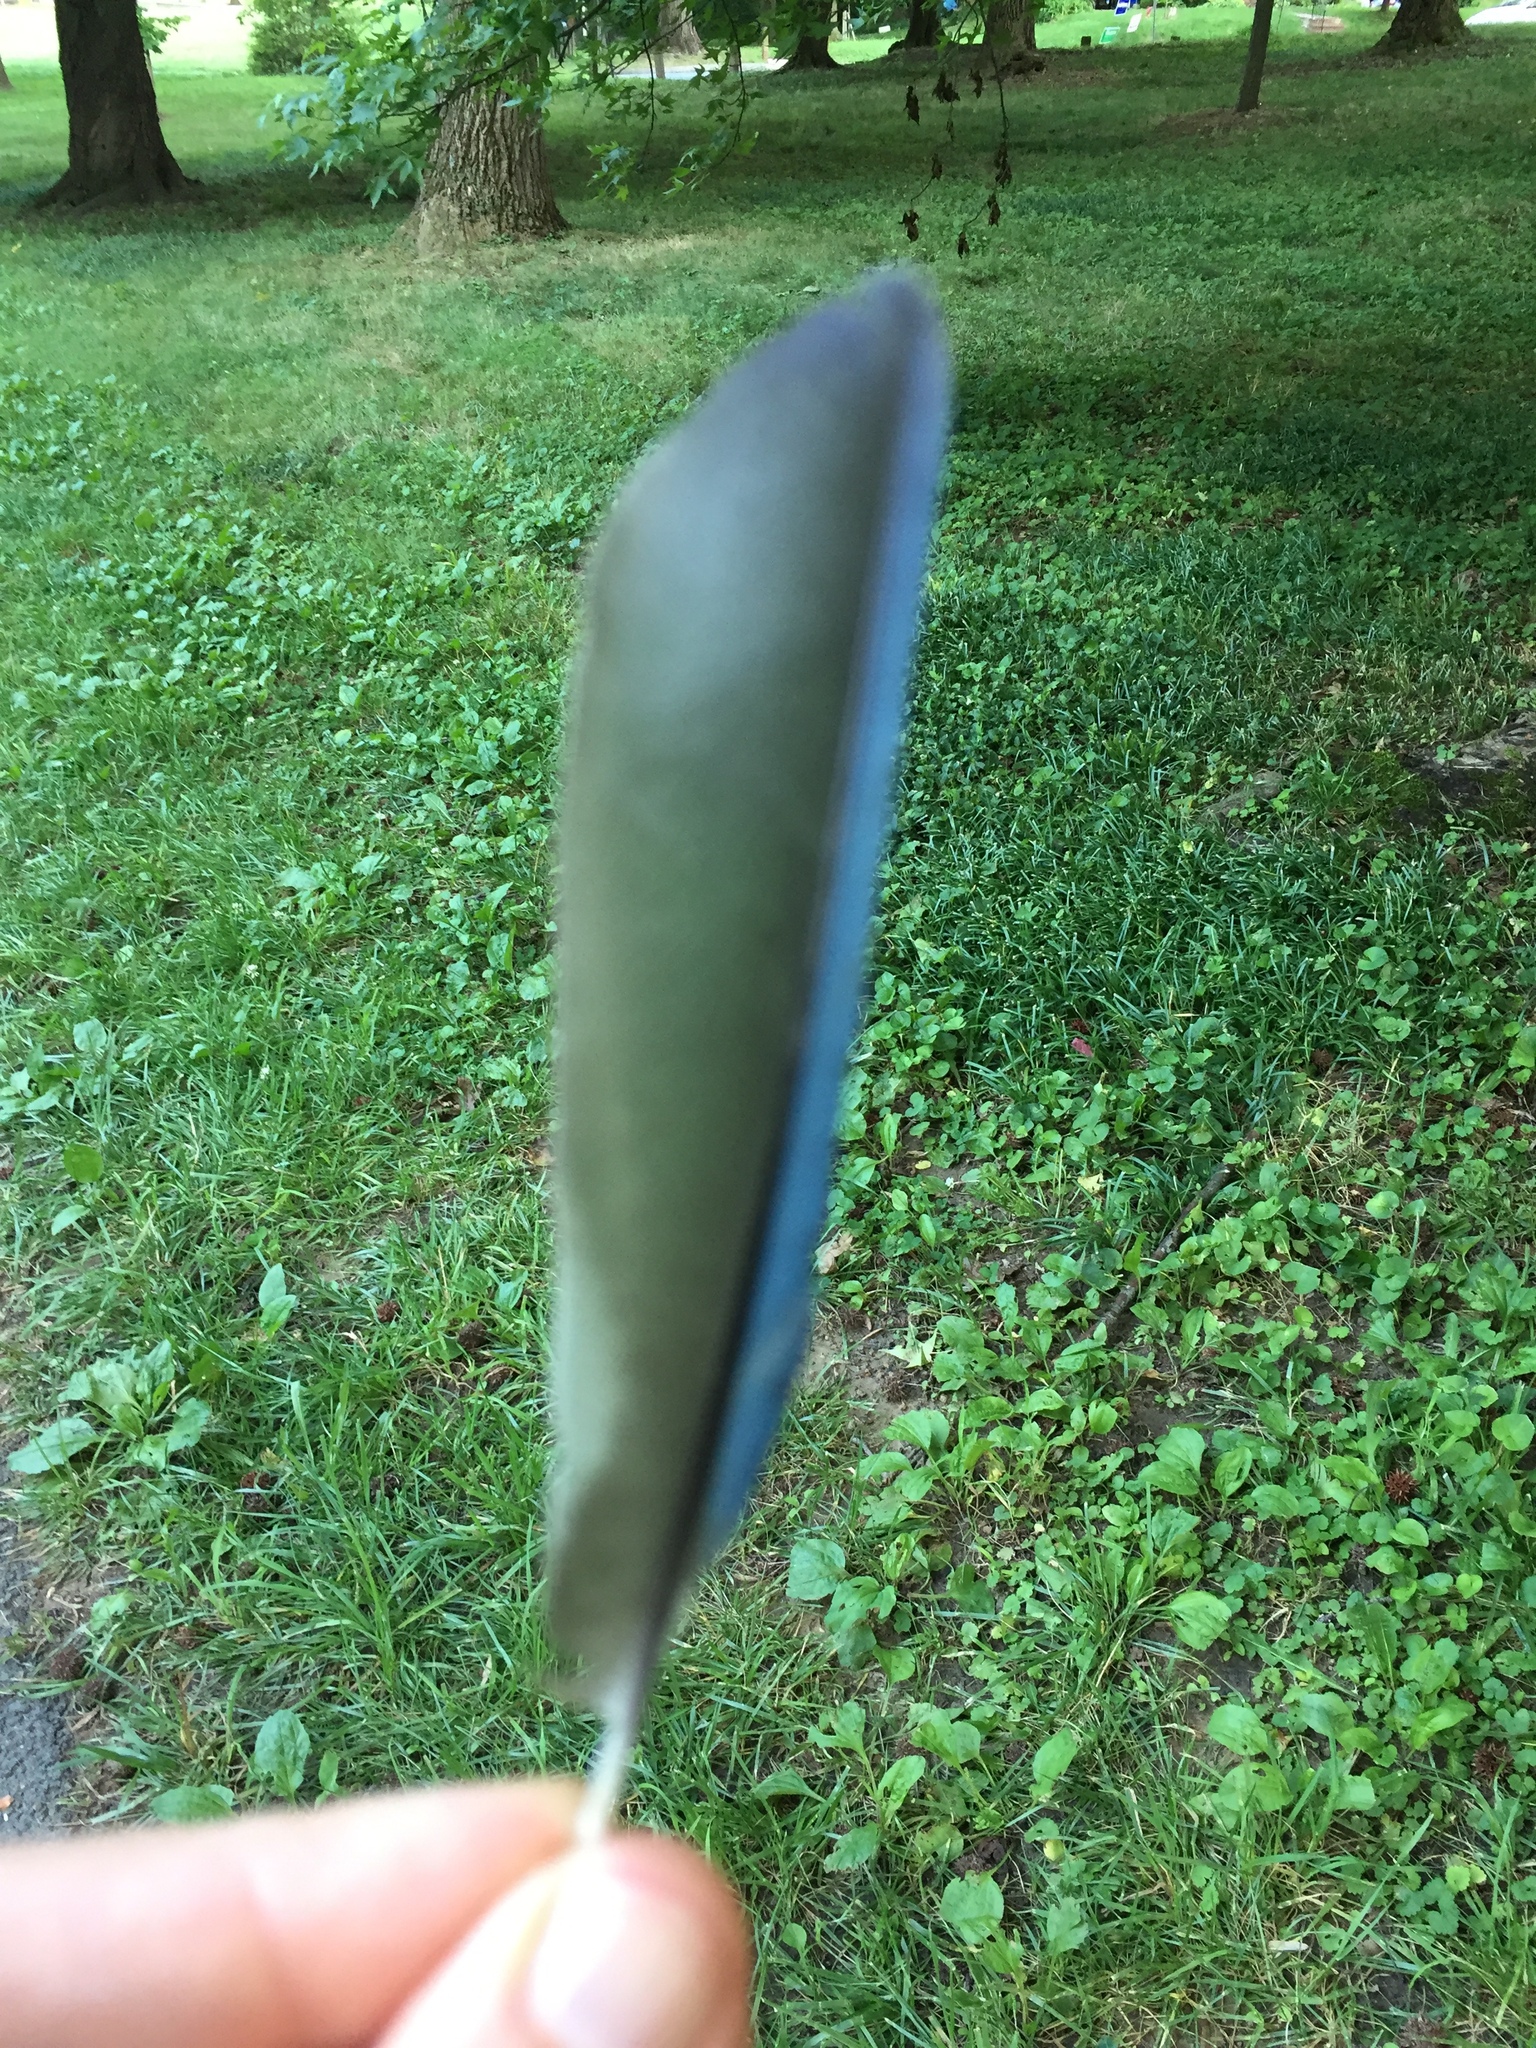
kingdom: Animalia
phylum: Chordata
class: Aves
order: Passeriformes
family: Corvidae
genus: Cyanocitta
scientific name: Cyanocitta cristata
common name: Blue jay
